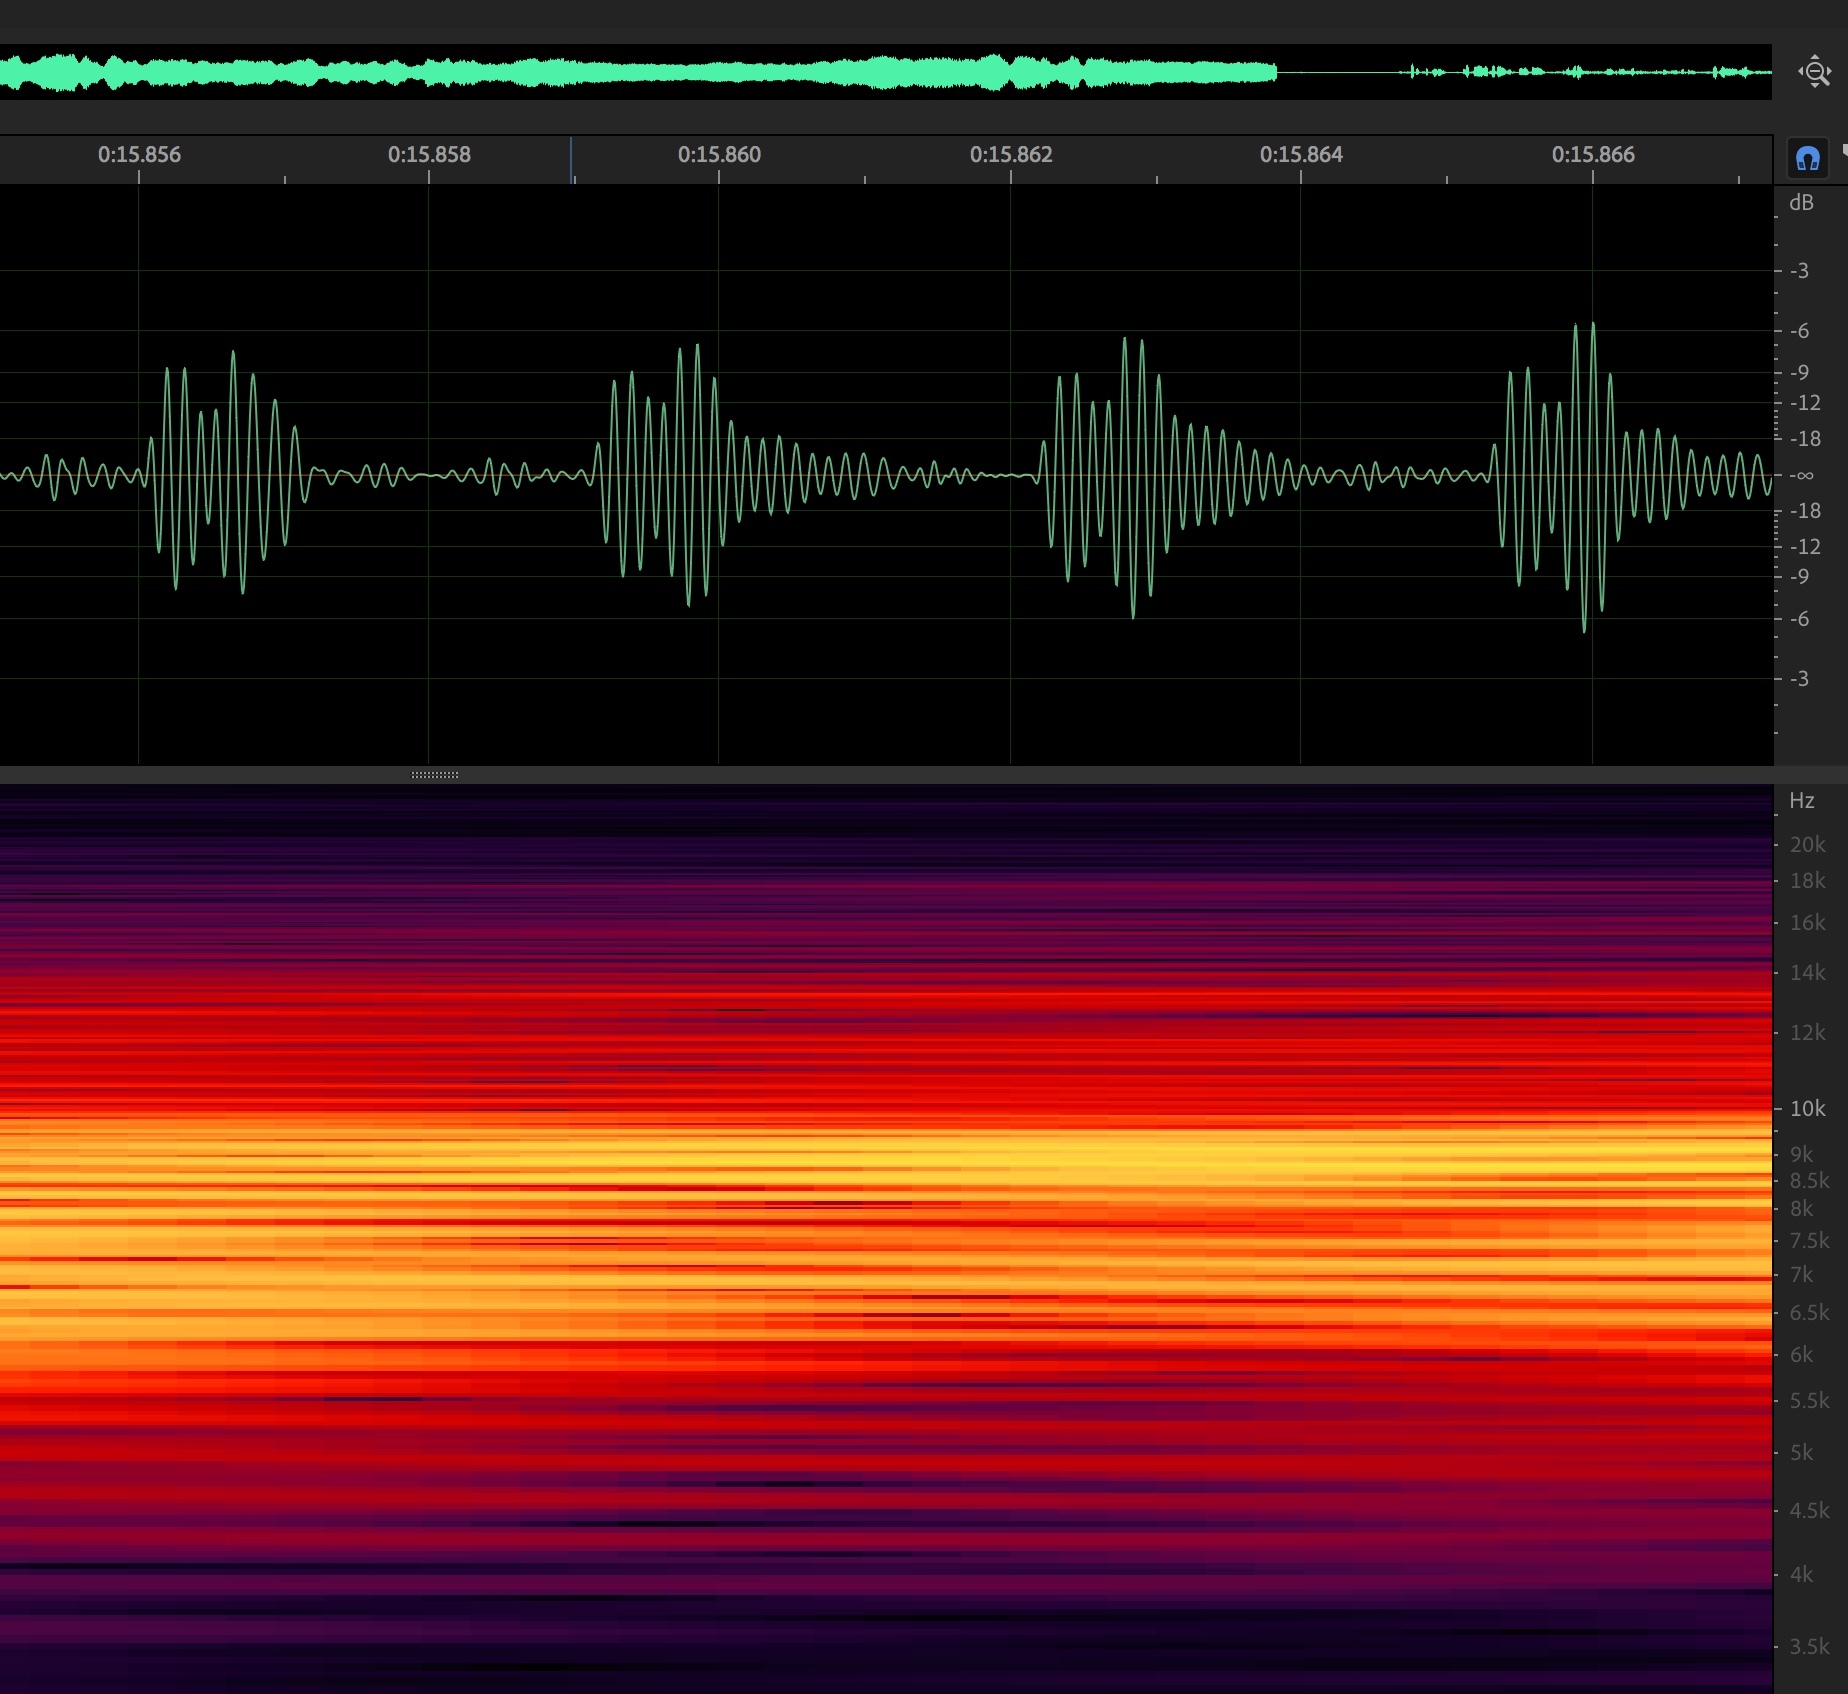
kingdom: Animalia
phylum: Arthropoda
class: Insecta
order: Hemiptera
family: Cicadidae
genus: Hadoa
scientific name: Hadoa inaudita
